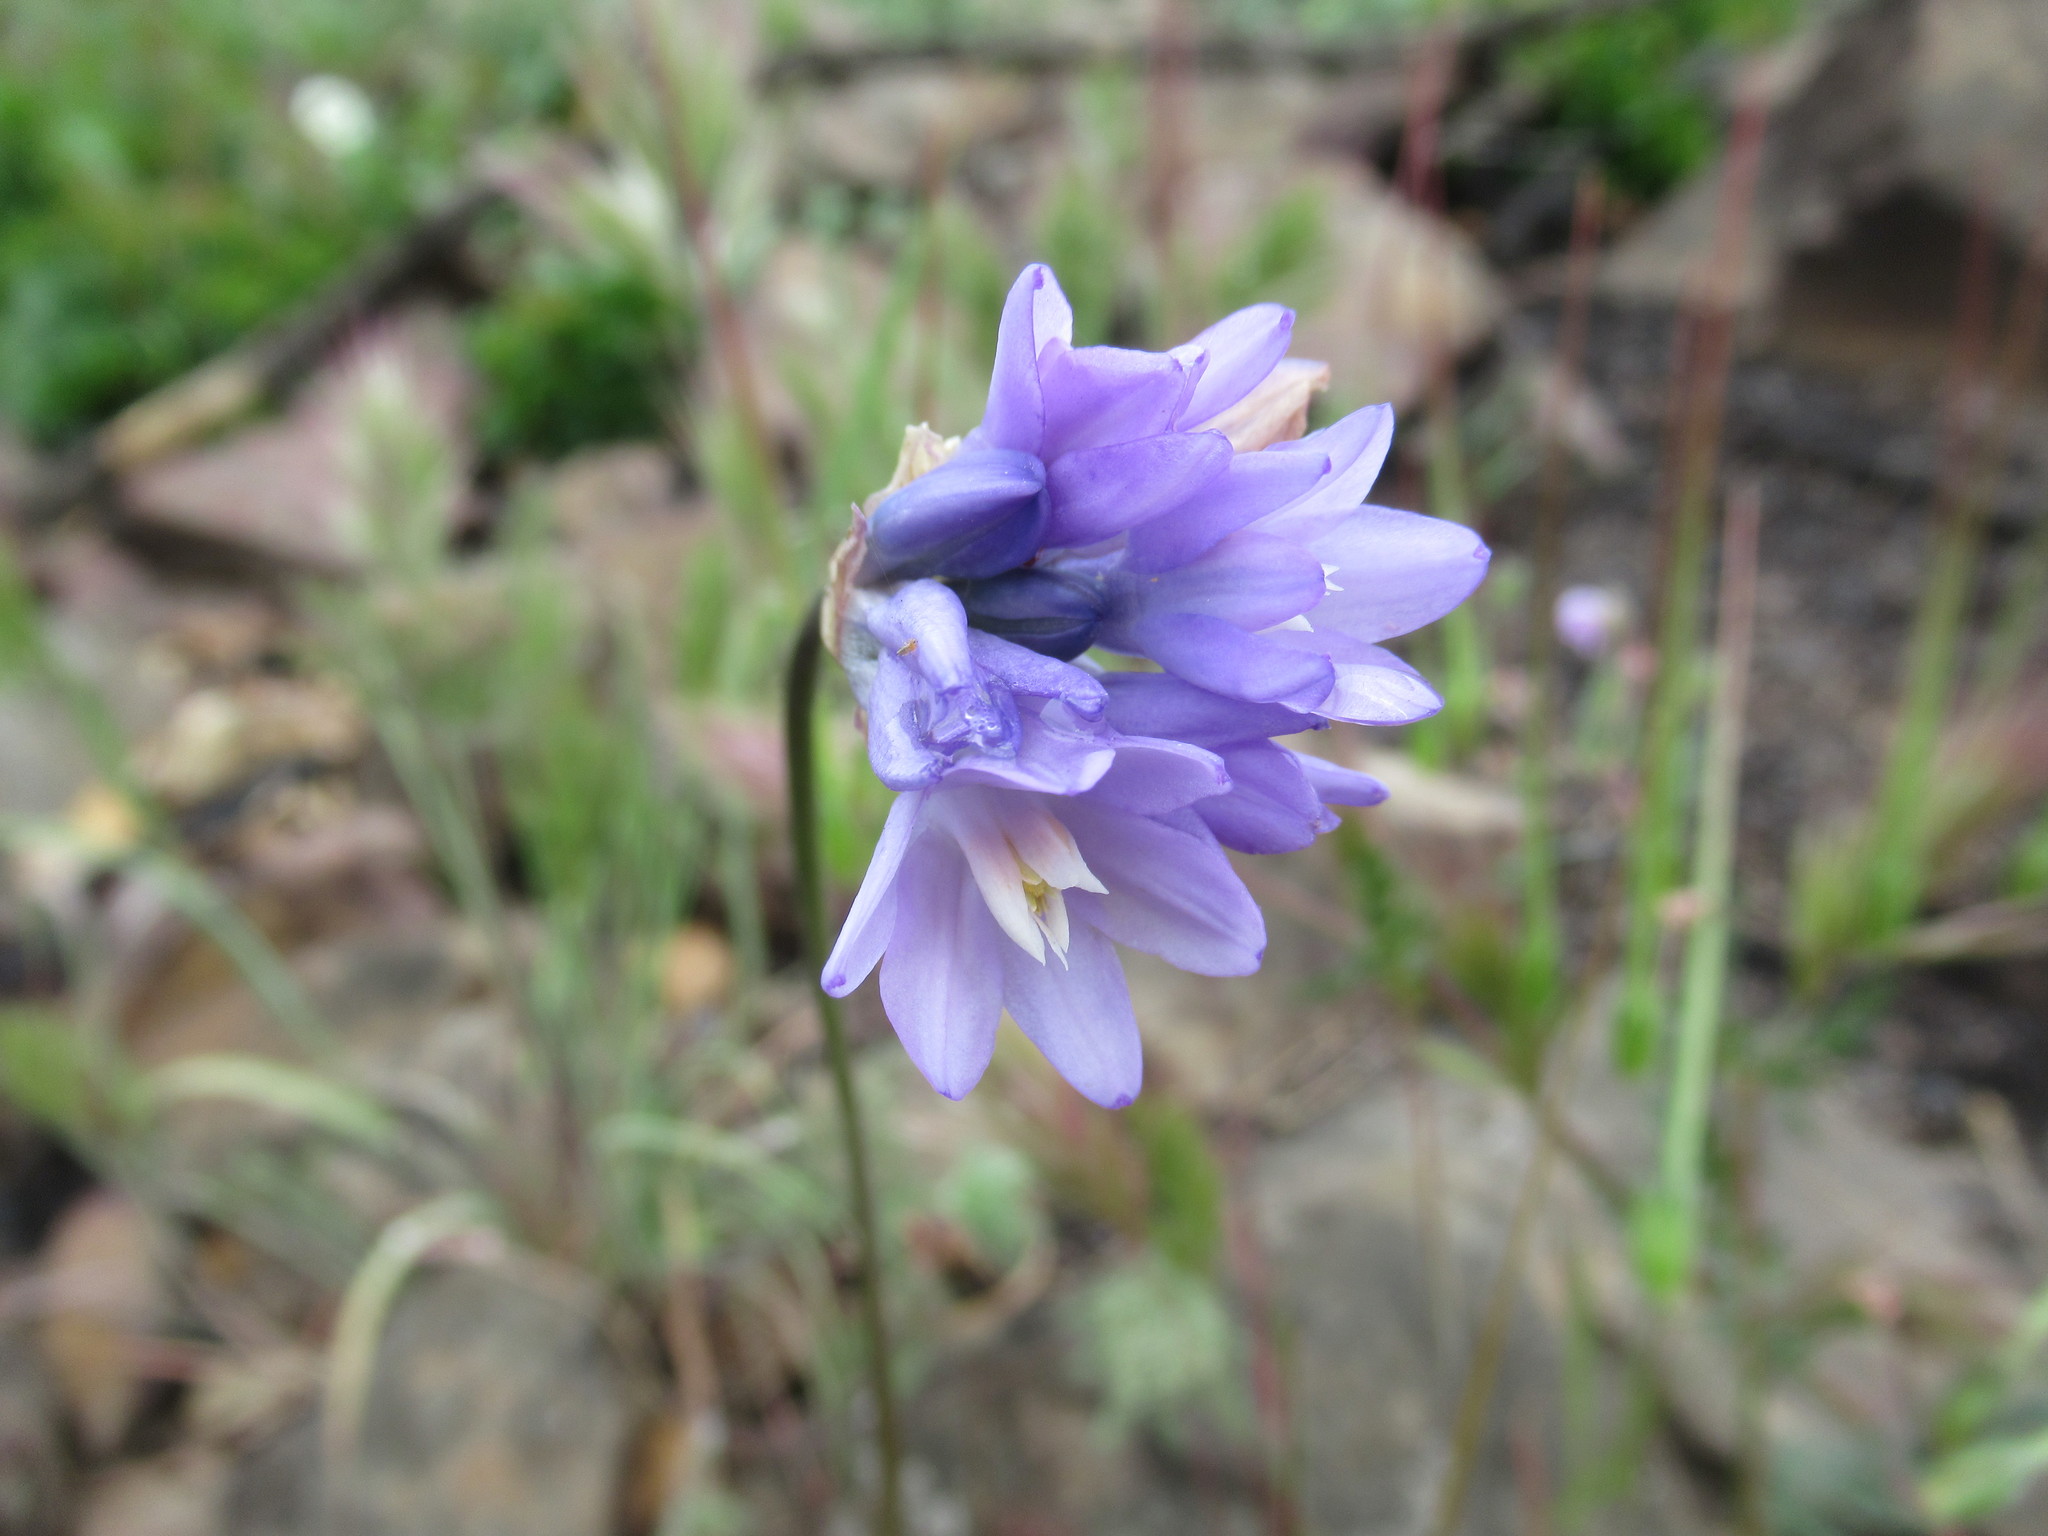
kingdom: Plantae
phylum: Tracheophyta
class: Liliopsida
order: Asparagales
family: Asparagaceae
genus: Dipterostemon
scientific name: Dipterostemon capitatus
